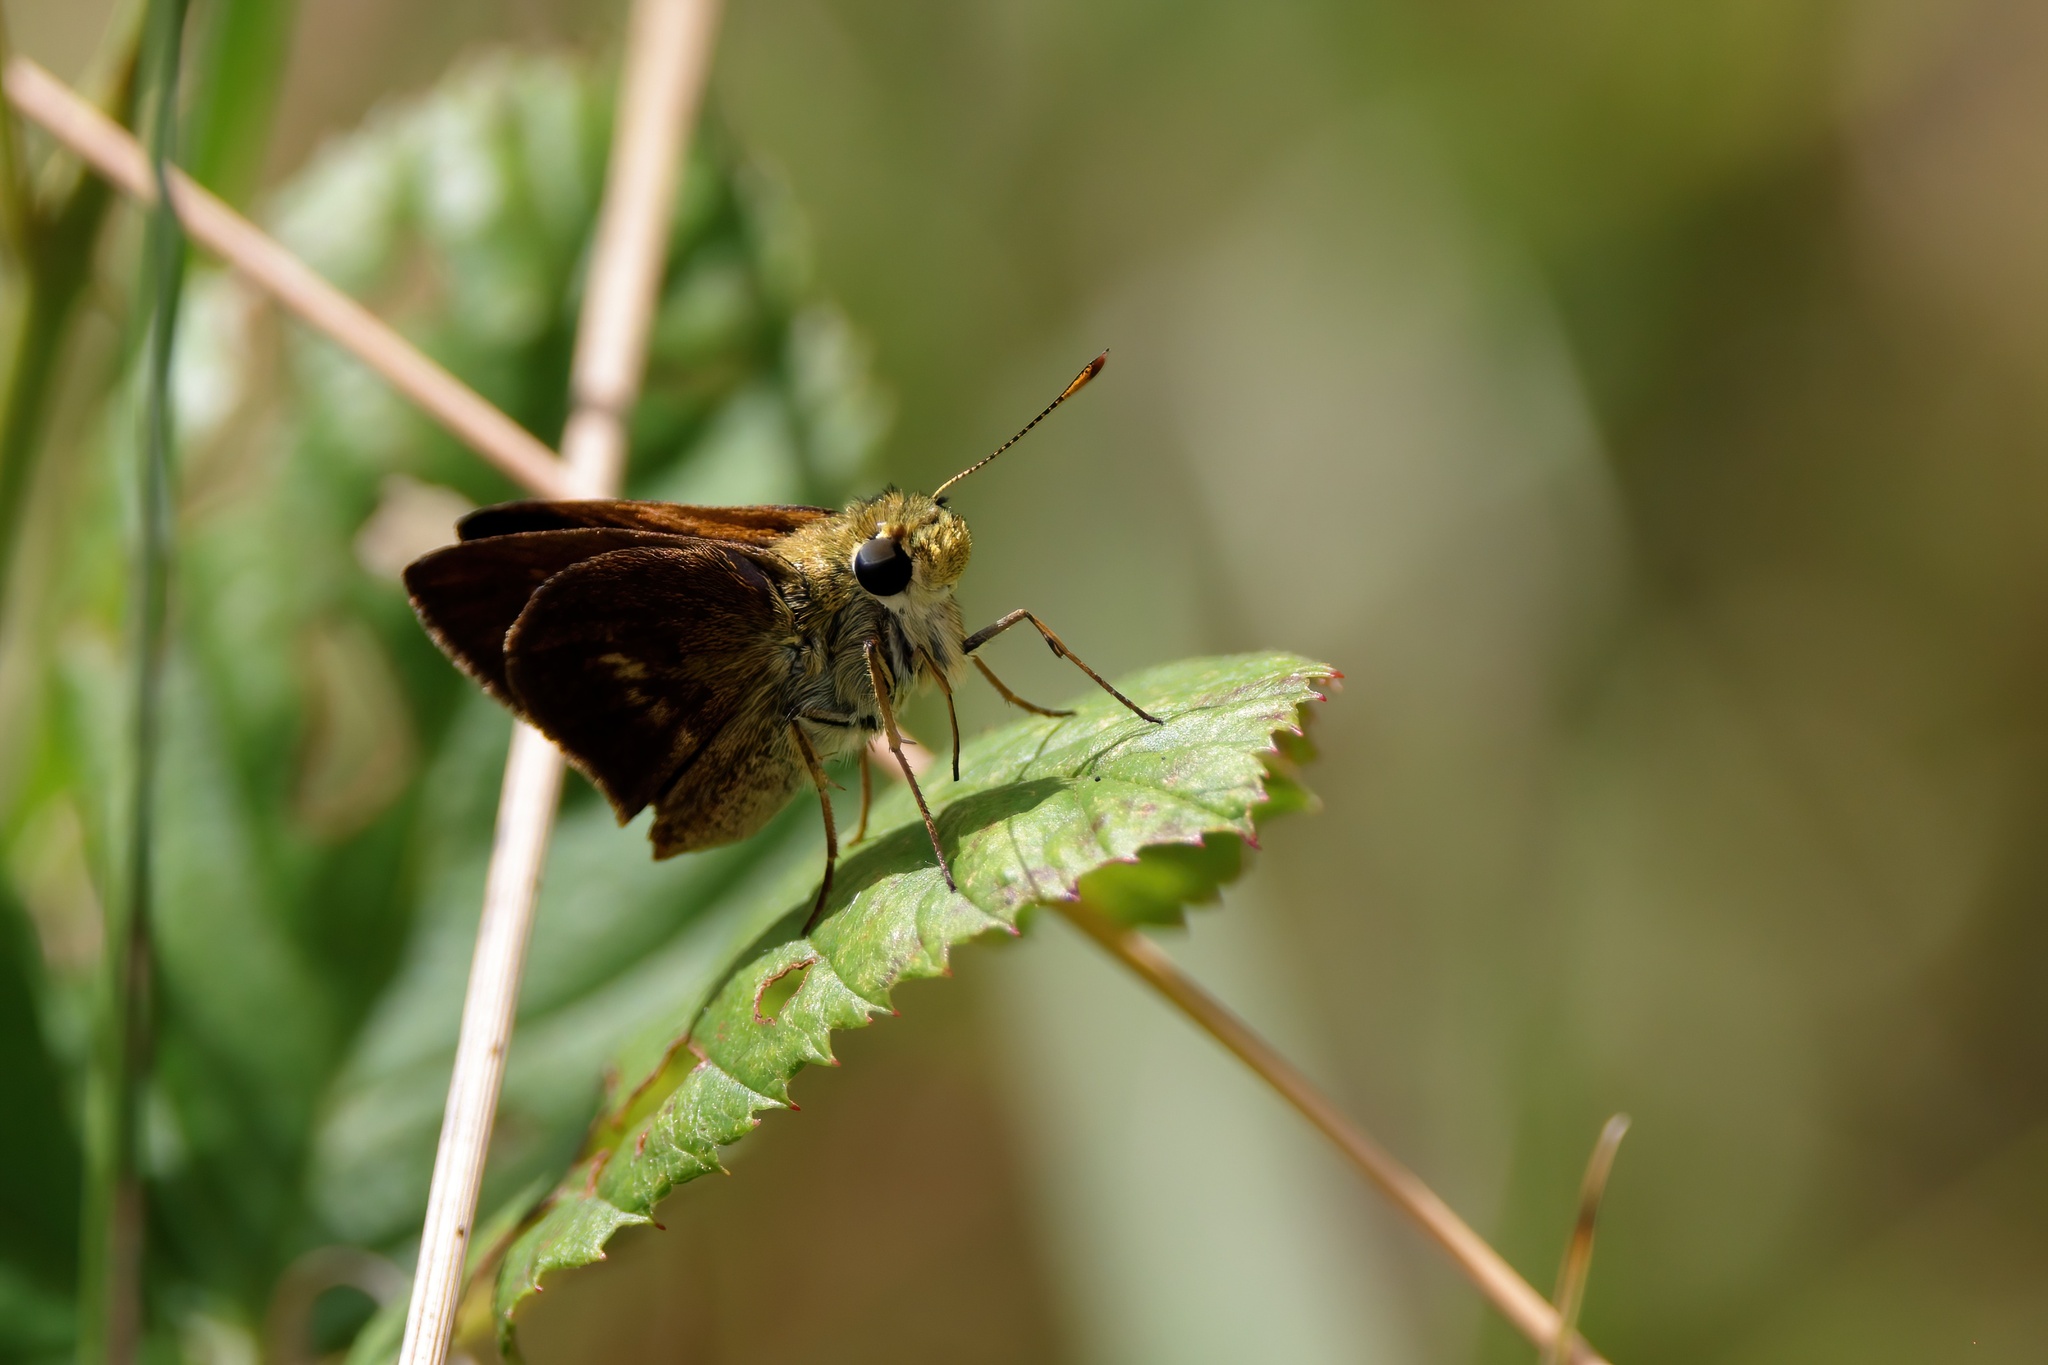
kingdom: Animalia
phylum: Arthropoda
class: Insecta
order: Lepidoptera
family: Hesperiidae
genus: Polites
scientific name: Polites egeremet
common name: Northern broken-dash
